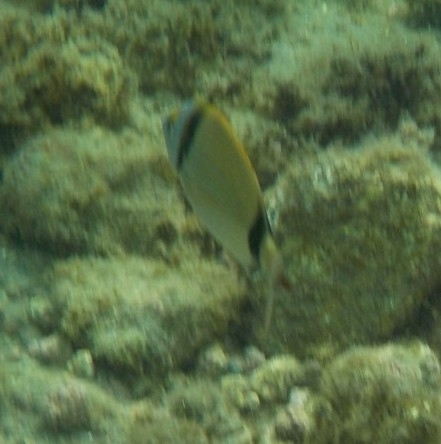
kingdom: Animalia
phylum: Chordata
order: Perciformes
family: Sparidae
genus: Diplodus
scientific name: Diplodus vulgaris
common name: Common two-banded seabream
